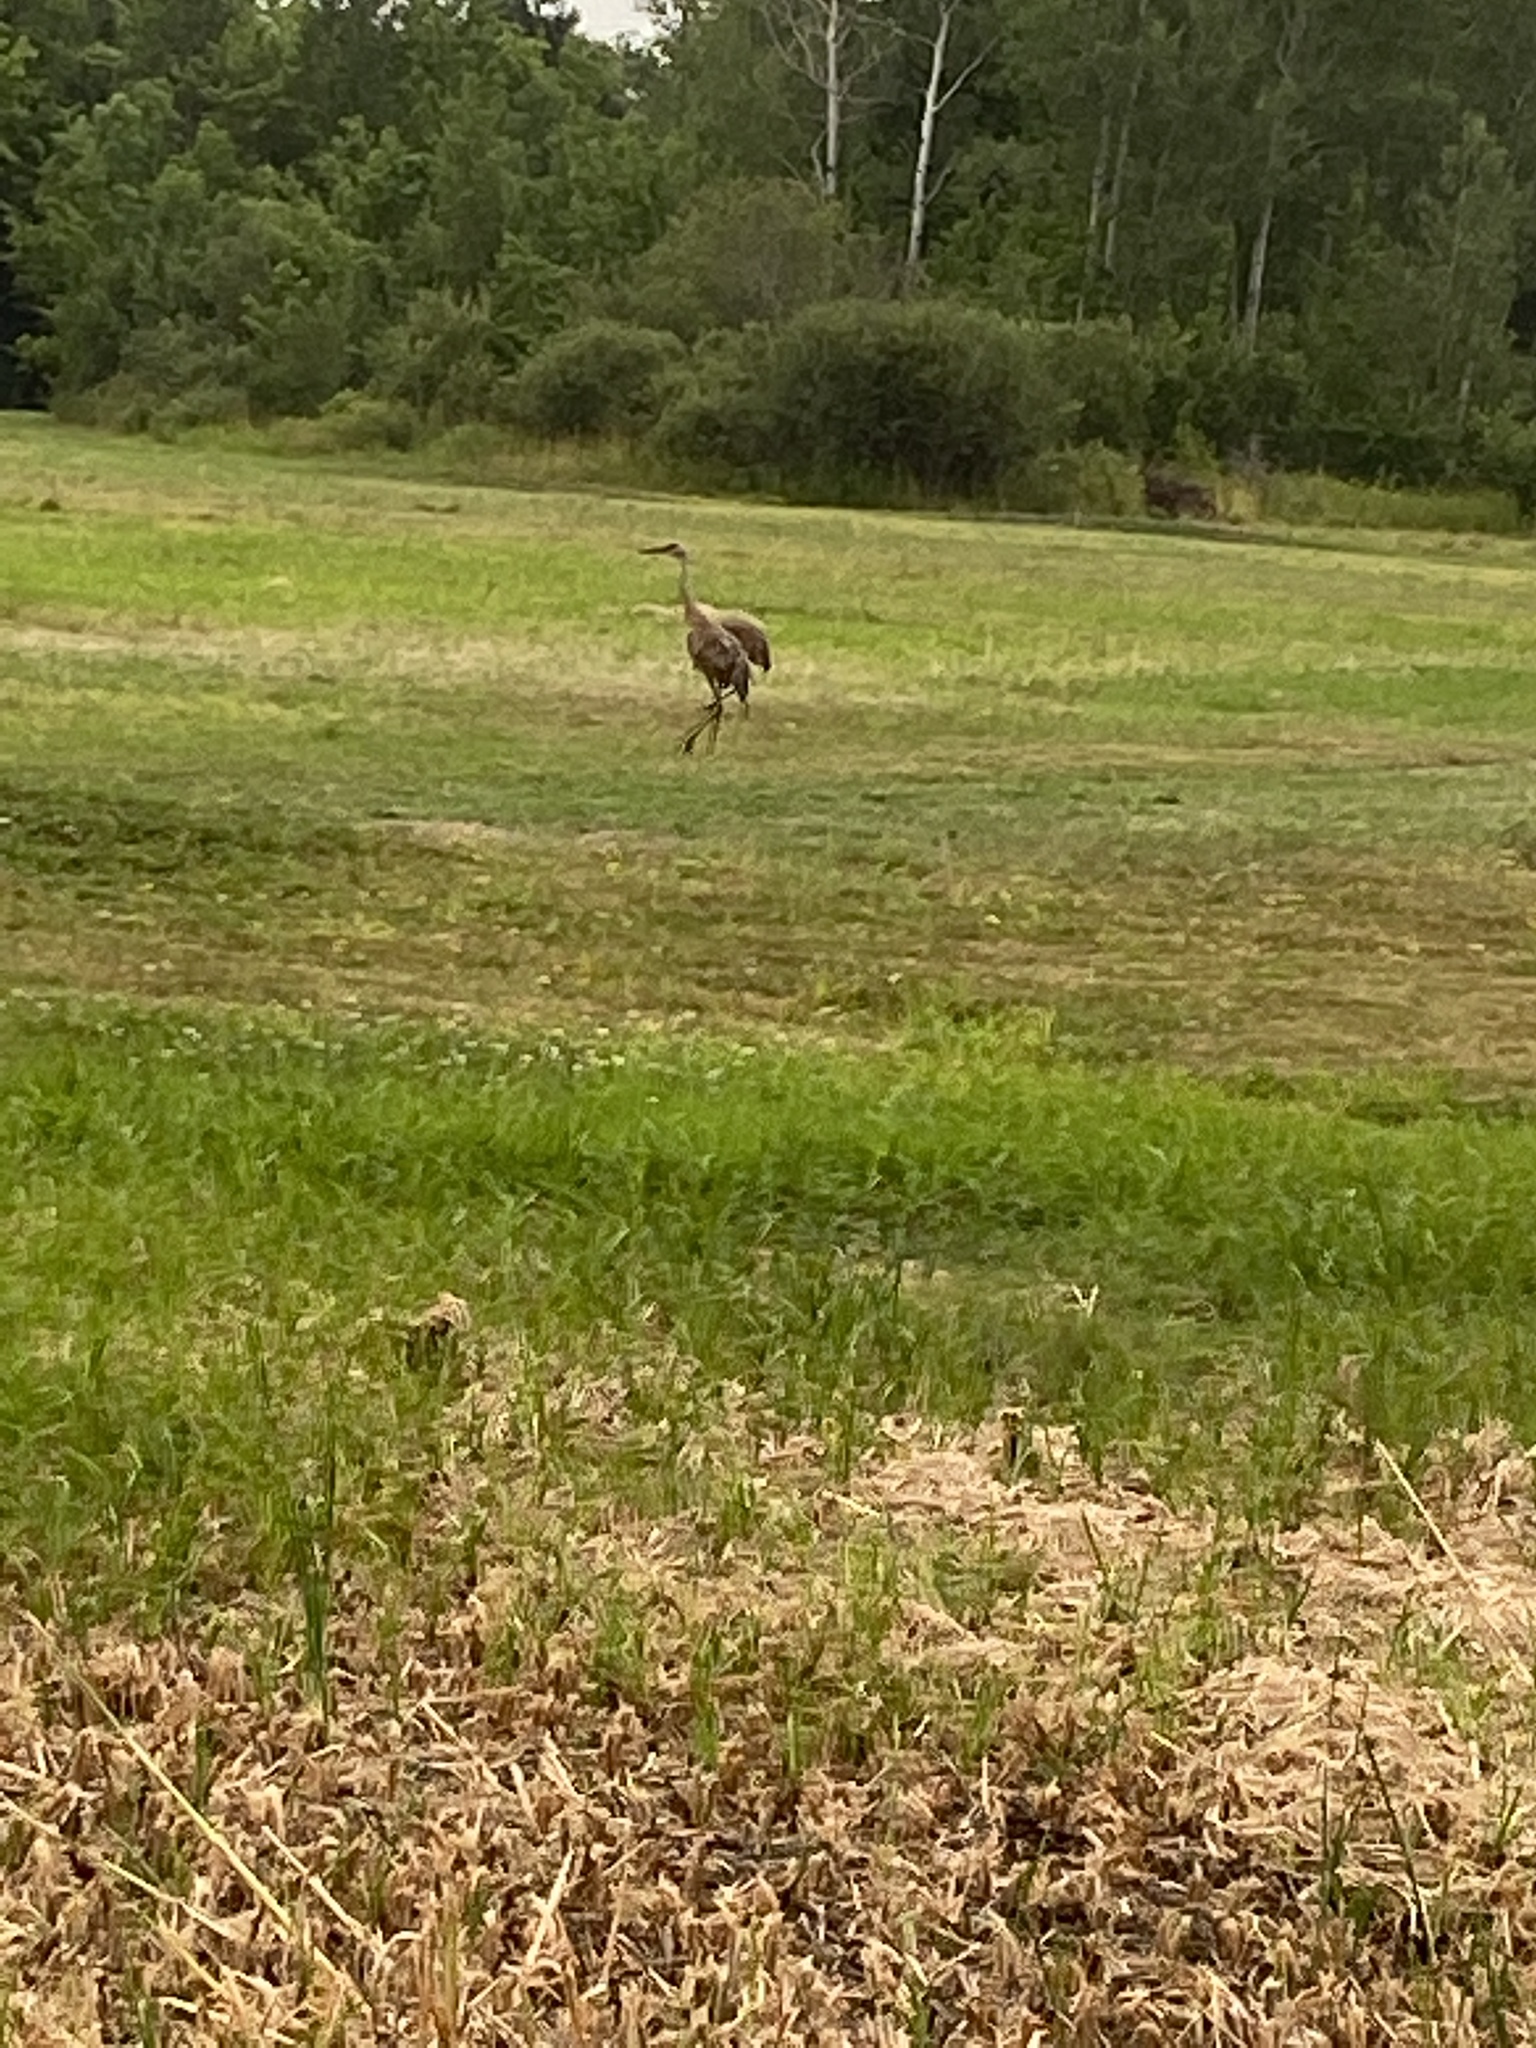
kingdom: Animalia
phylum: Chordata
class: Aves
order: Gruiformes
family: Gruidae
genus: Grus
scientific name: Grus canadensis
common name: Sandhill crane
